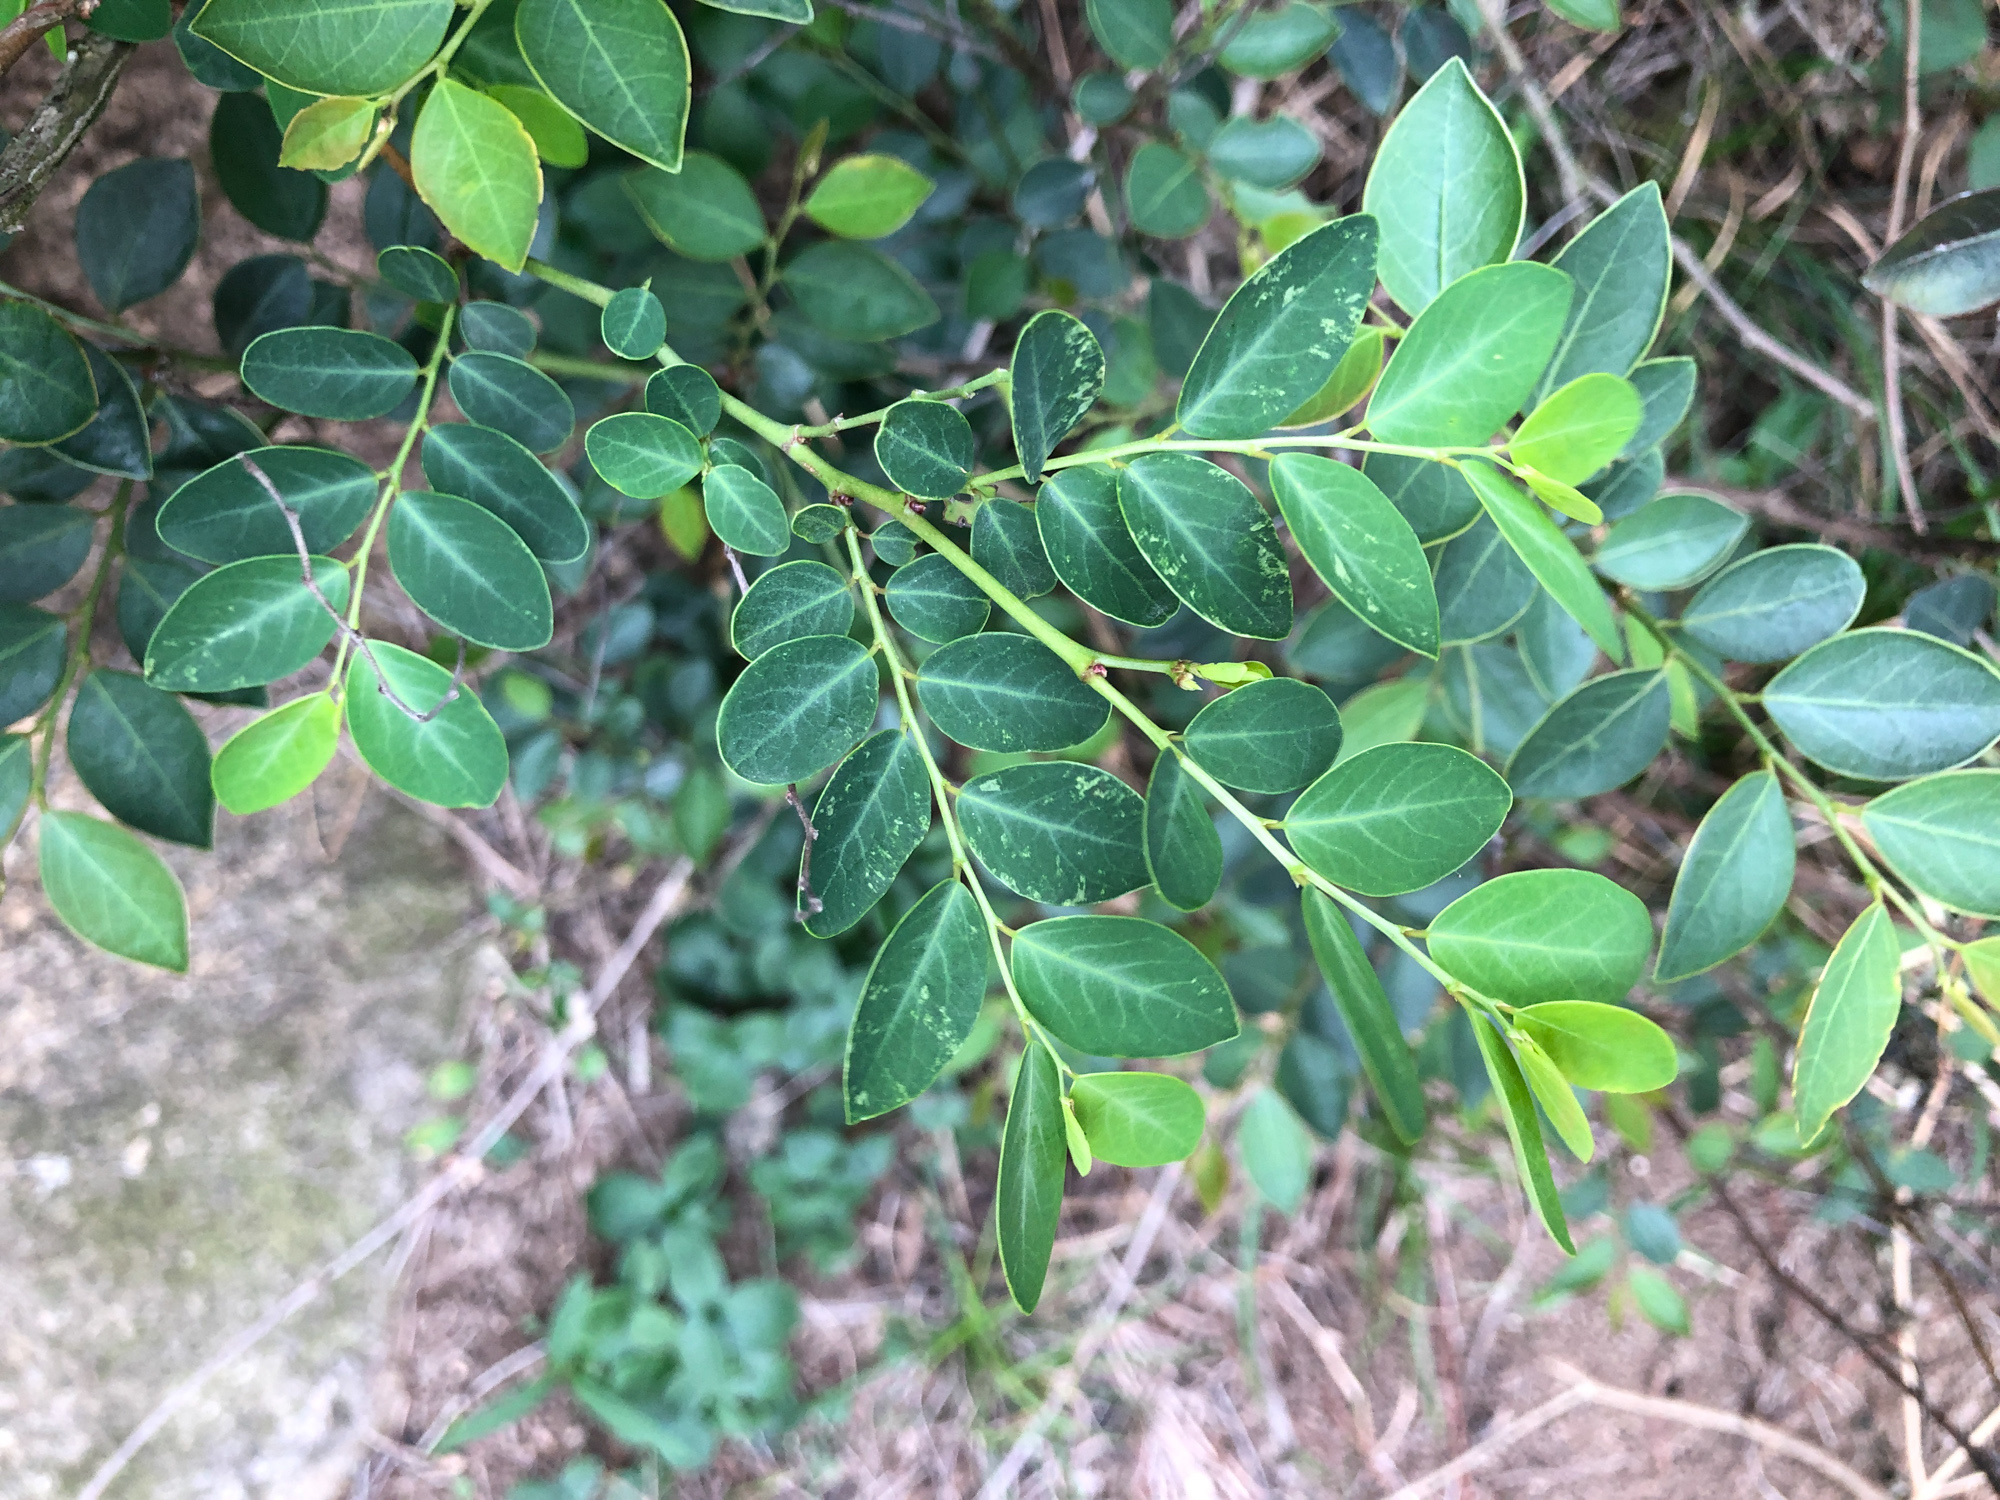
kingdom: Plantae
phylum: Tracheophyta
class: Magnoliopsida
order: Malpighiales
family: Phyllanthaceae
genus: Breynia
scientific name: Breynia vitis-idaea
